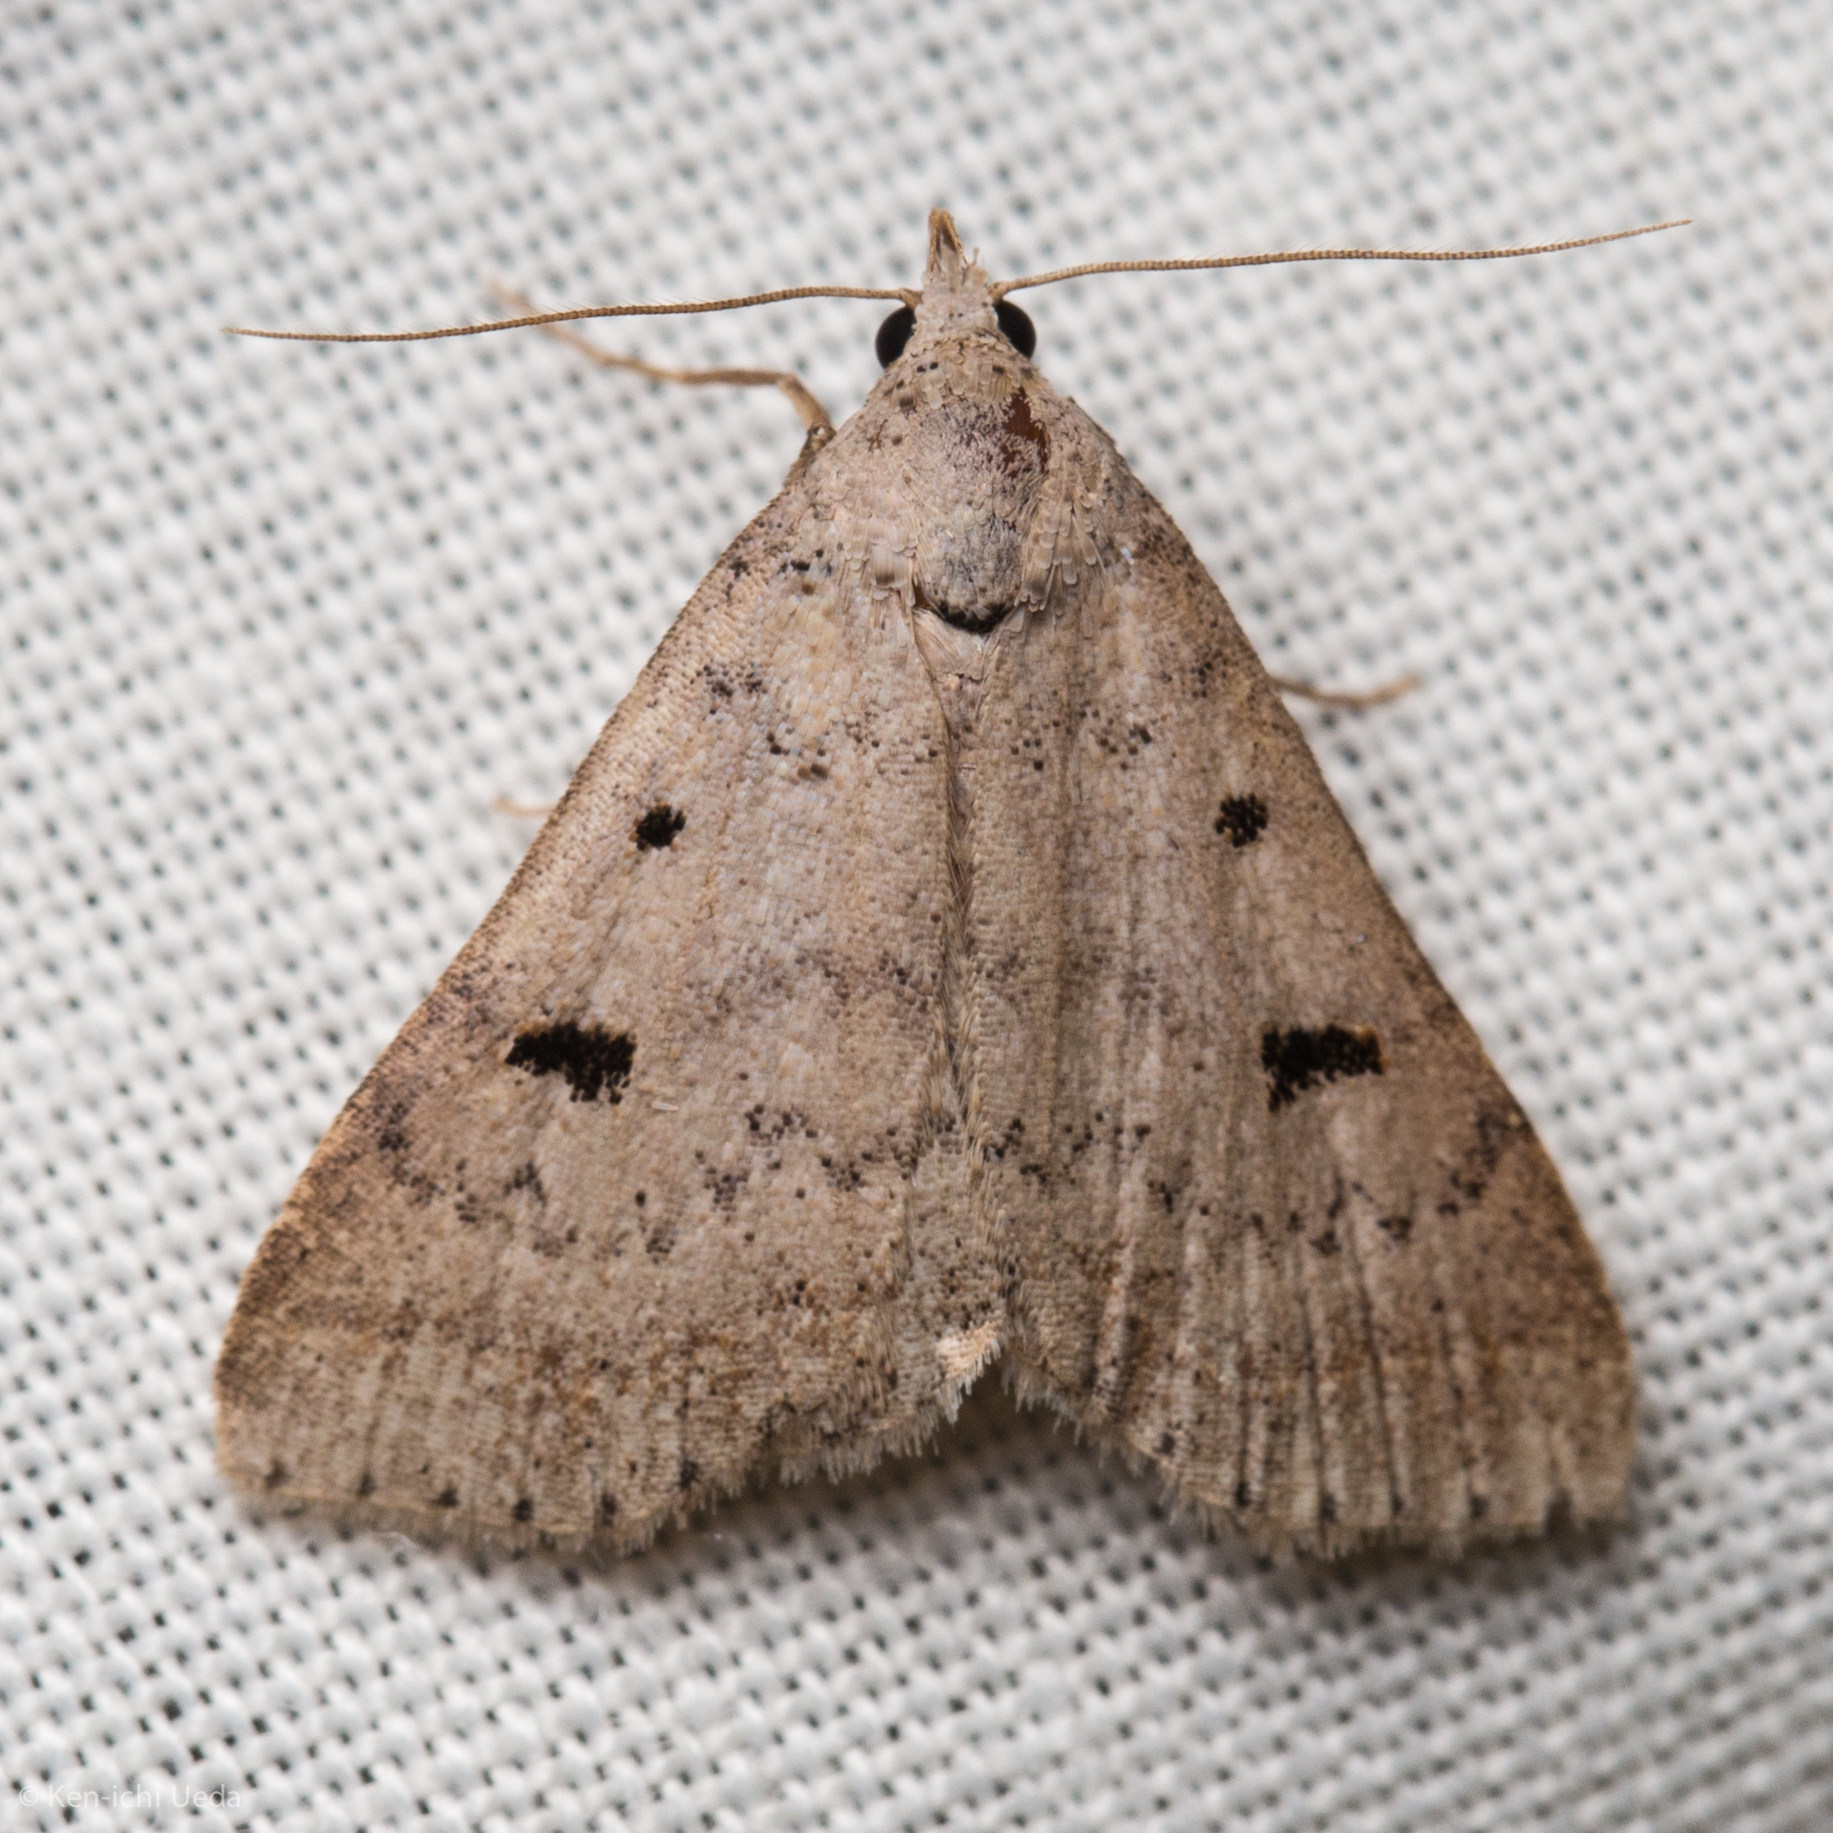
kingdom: Animalia
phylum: Arthropoda
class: Insecta
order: Lepidoptera
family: Erebidae
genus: Bleptina
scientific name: Bleptina caradrinalis
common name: Bent-winged owlet
